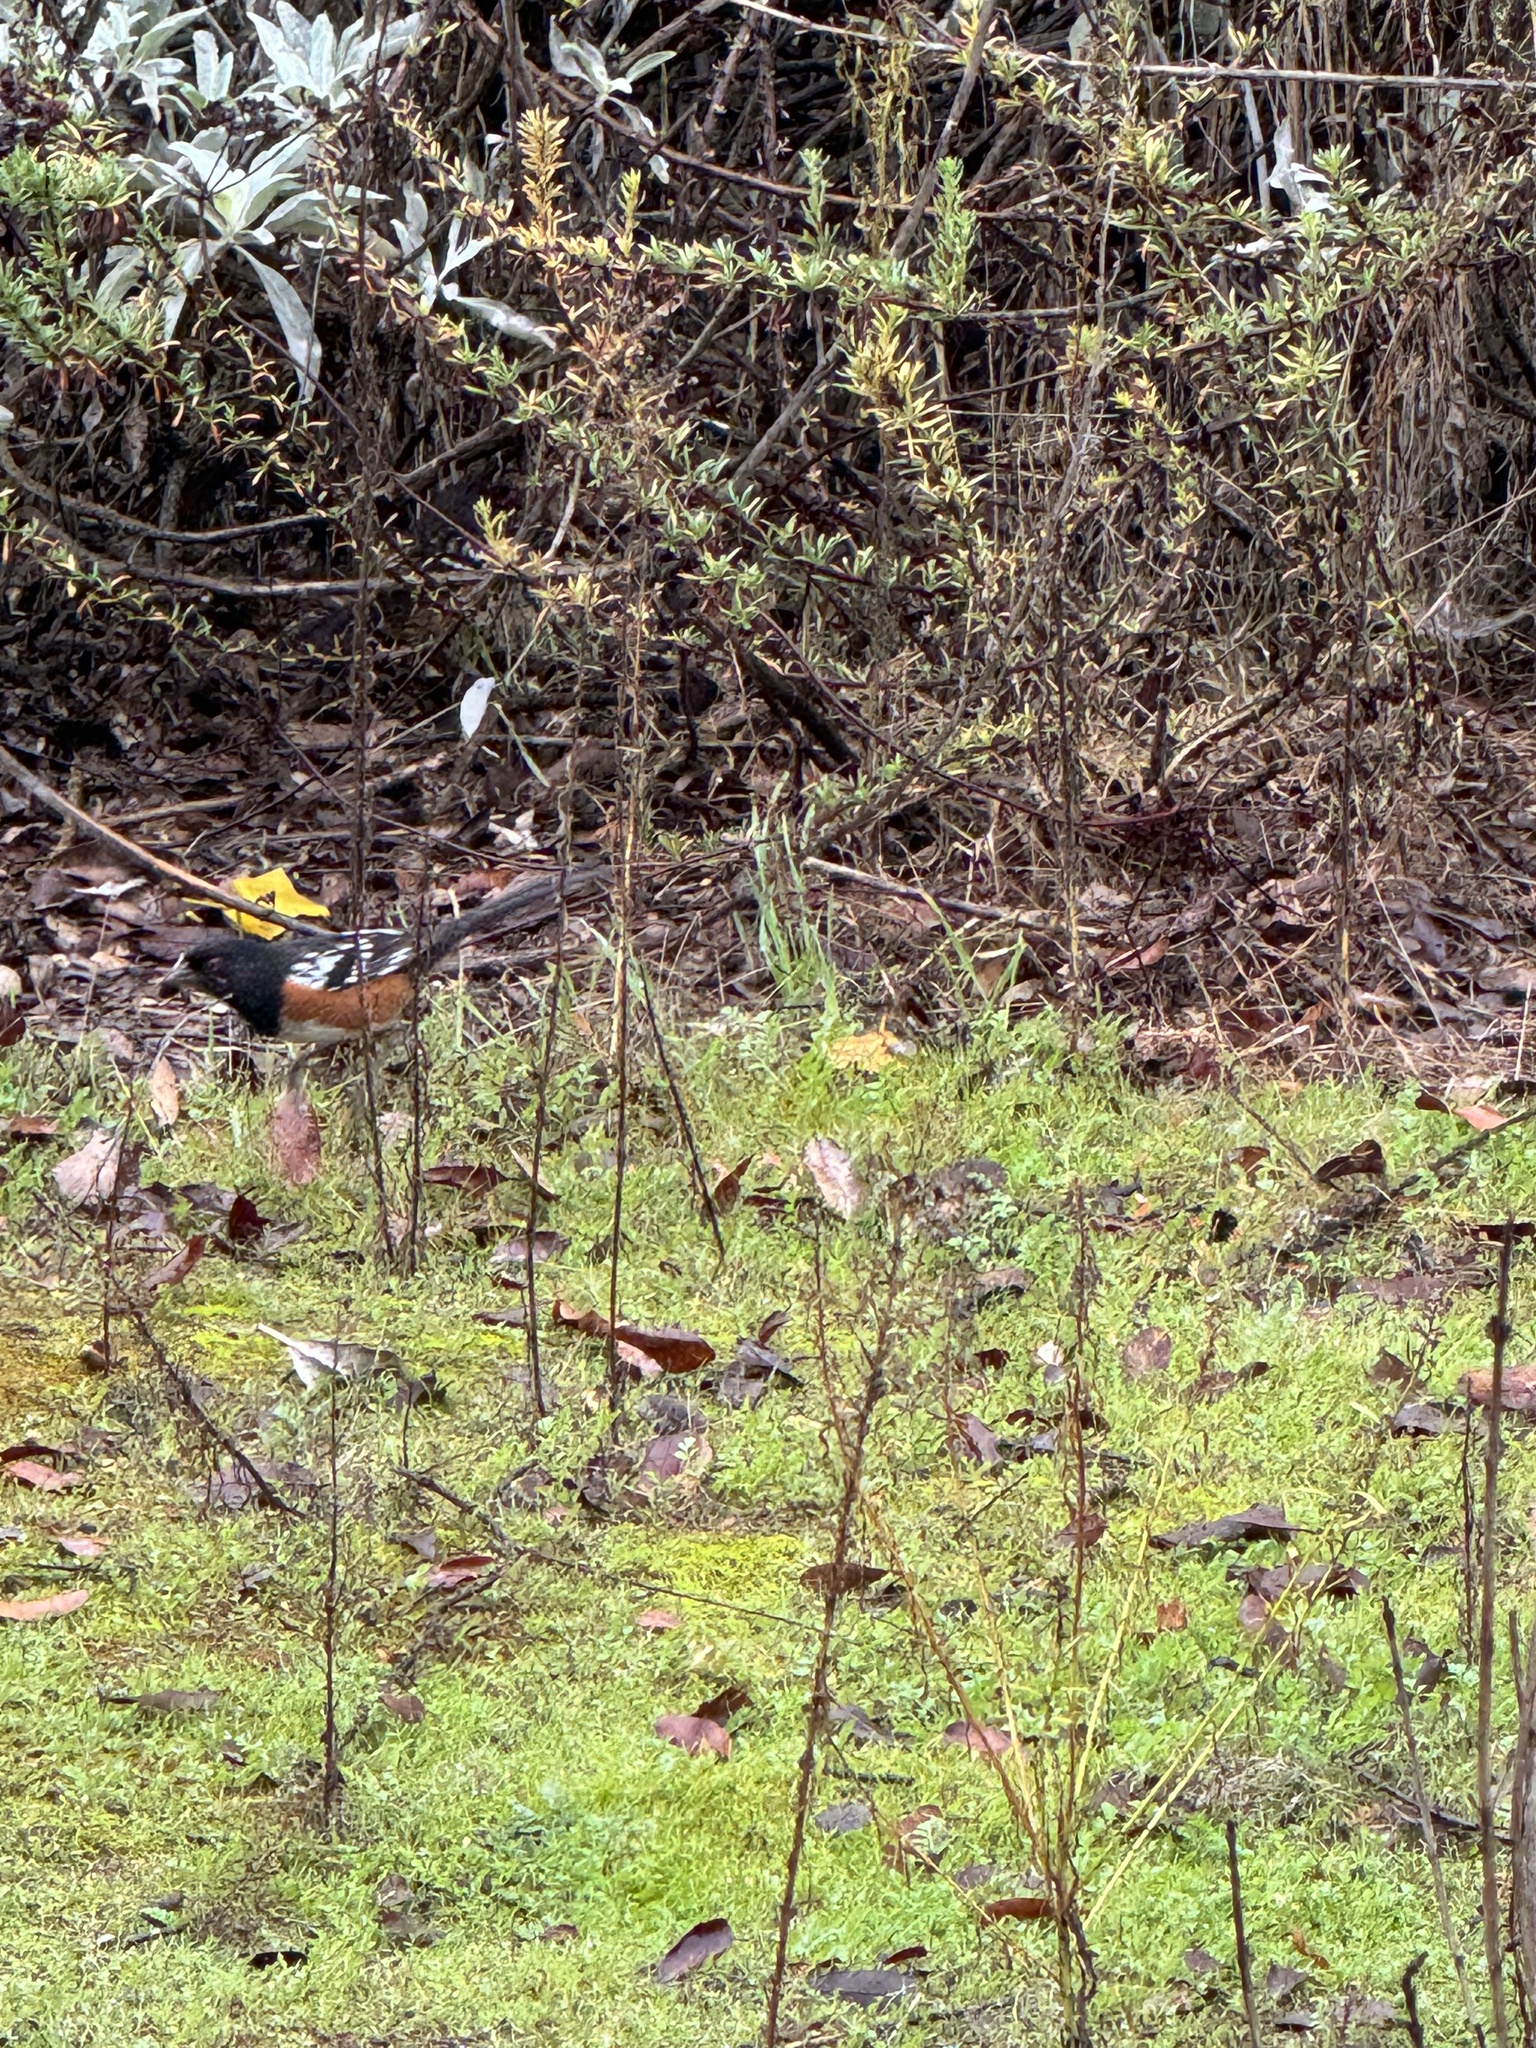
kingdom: Animalia
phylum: Chordata
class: Aves
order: Passeriformes
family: Passerellidae
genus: Pipilo
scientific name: Pipilo maculatus
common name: Spotted towhee
